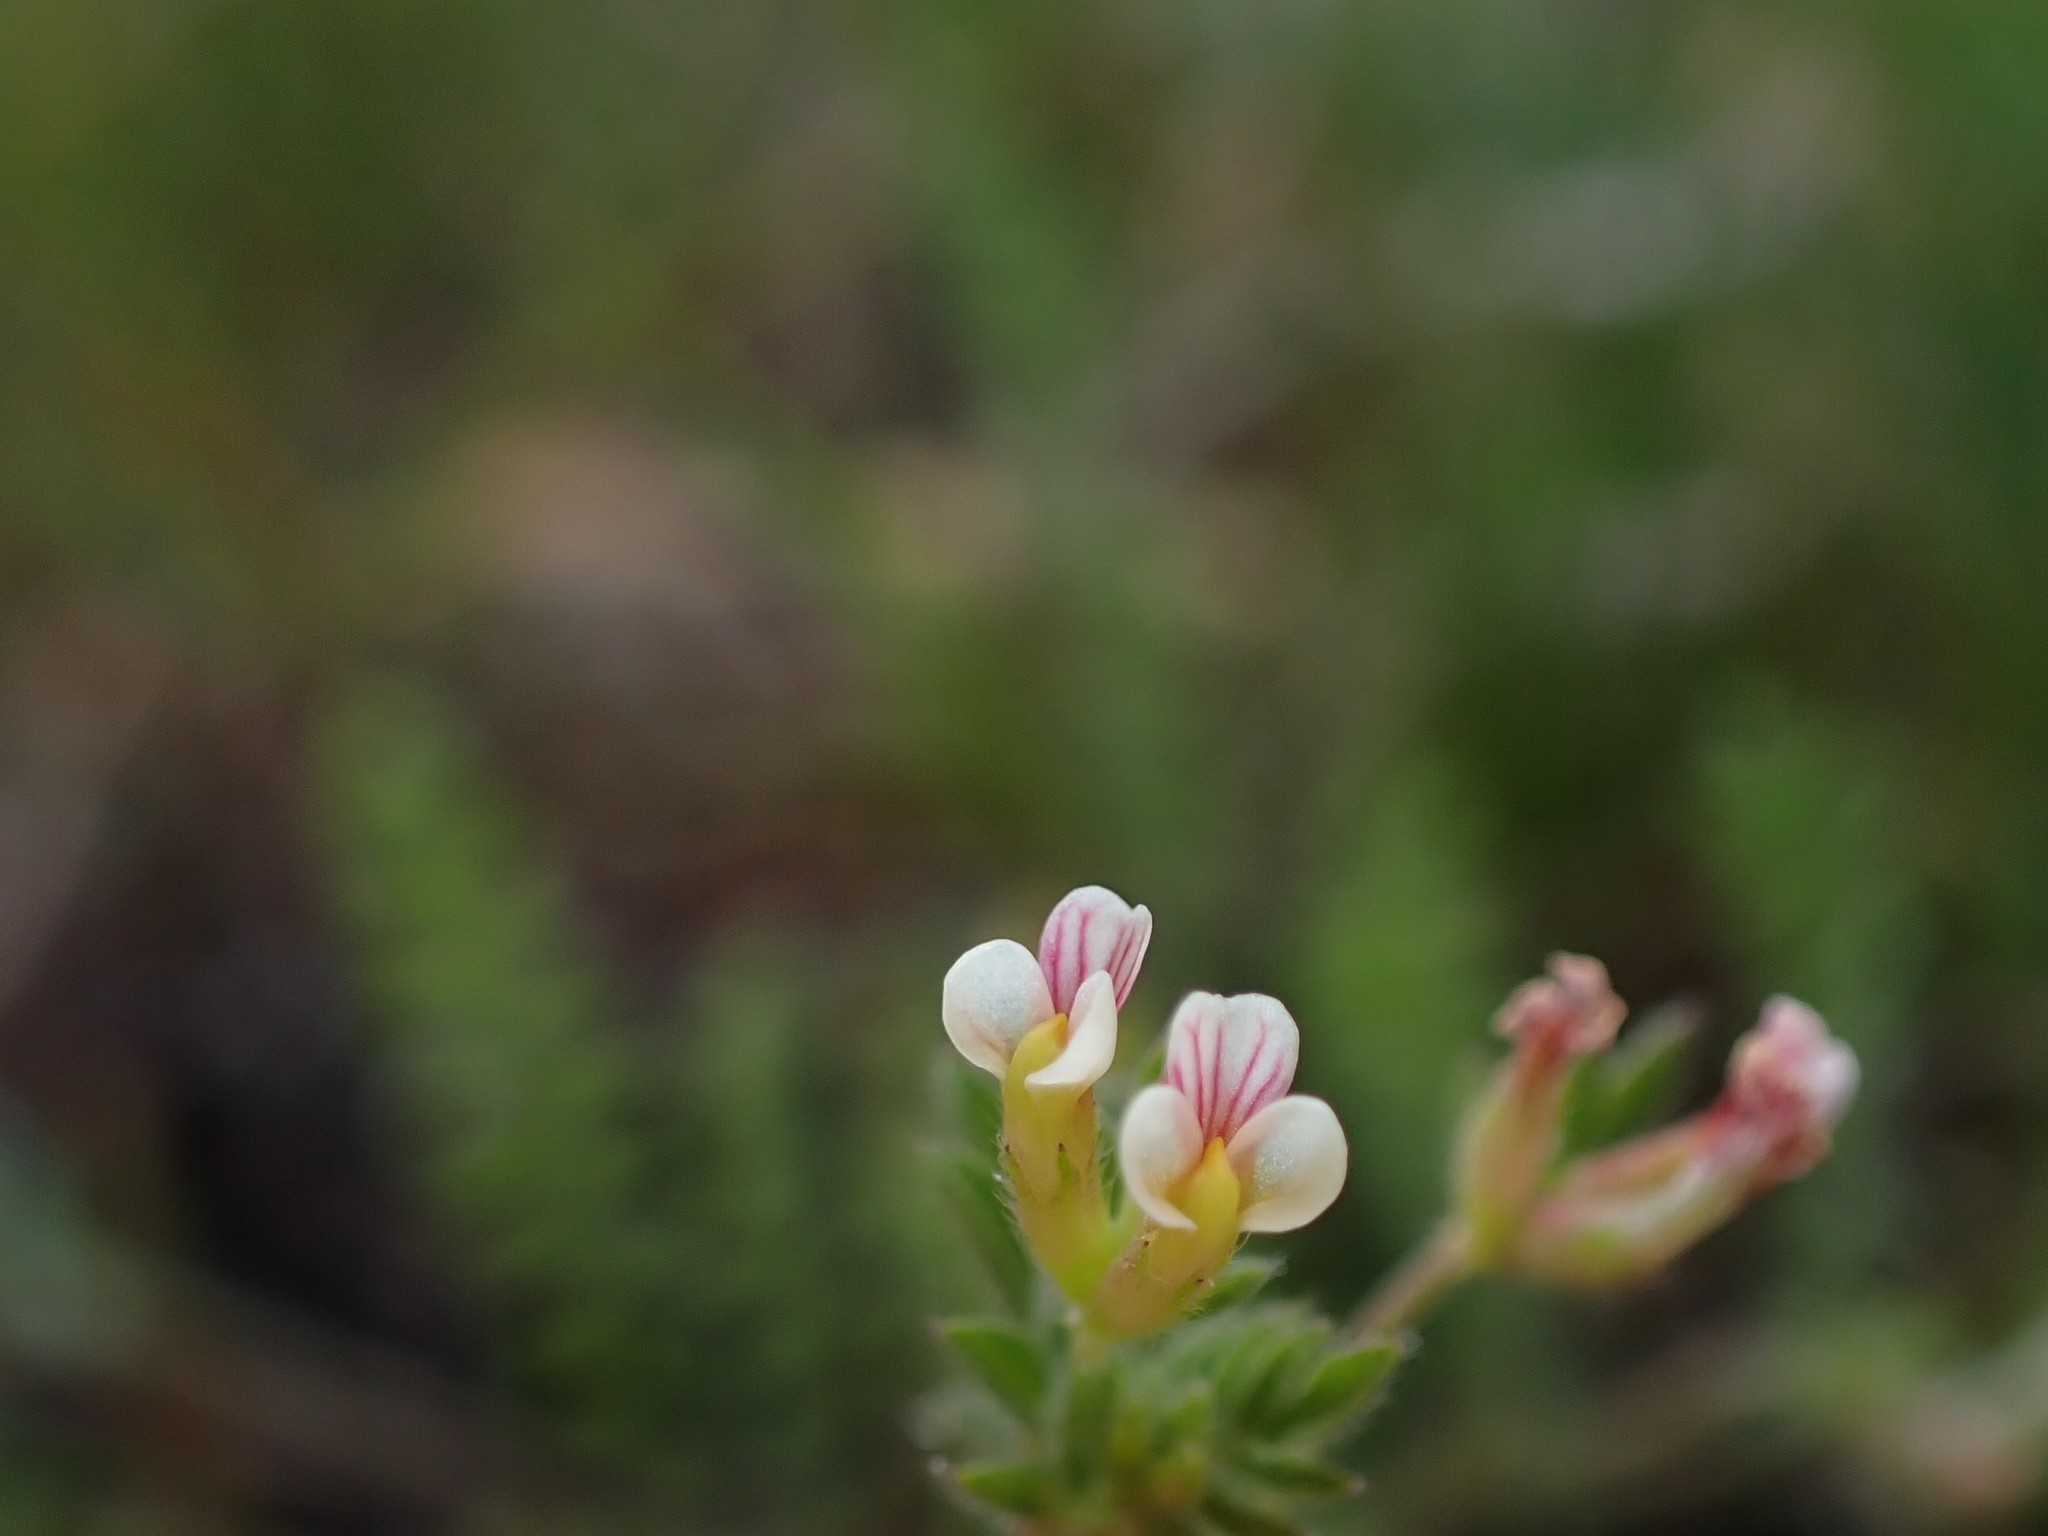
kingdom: Plantae
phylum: Tracheophyta
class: Magnoliopsida
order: Fabales
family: Fabaceae
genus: Ornithopus
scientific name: Ornithopus perpusillus
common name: Bird's-foot
